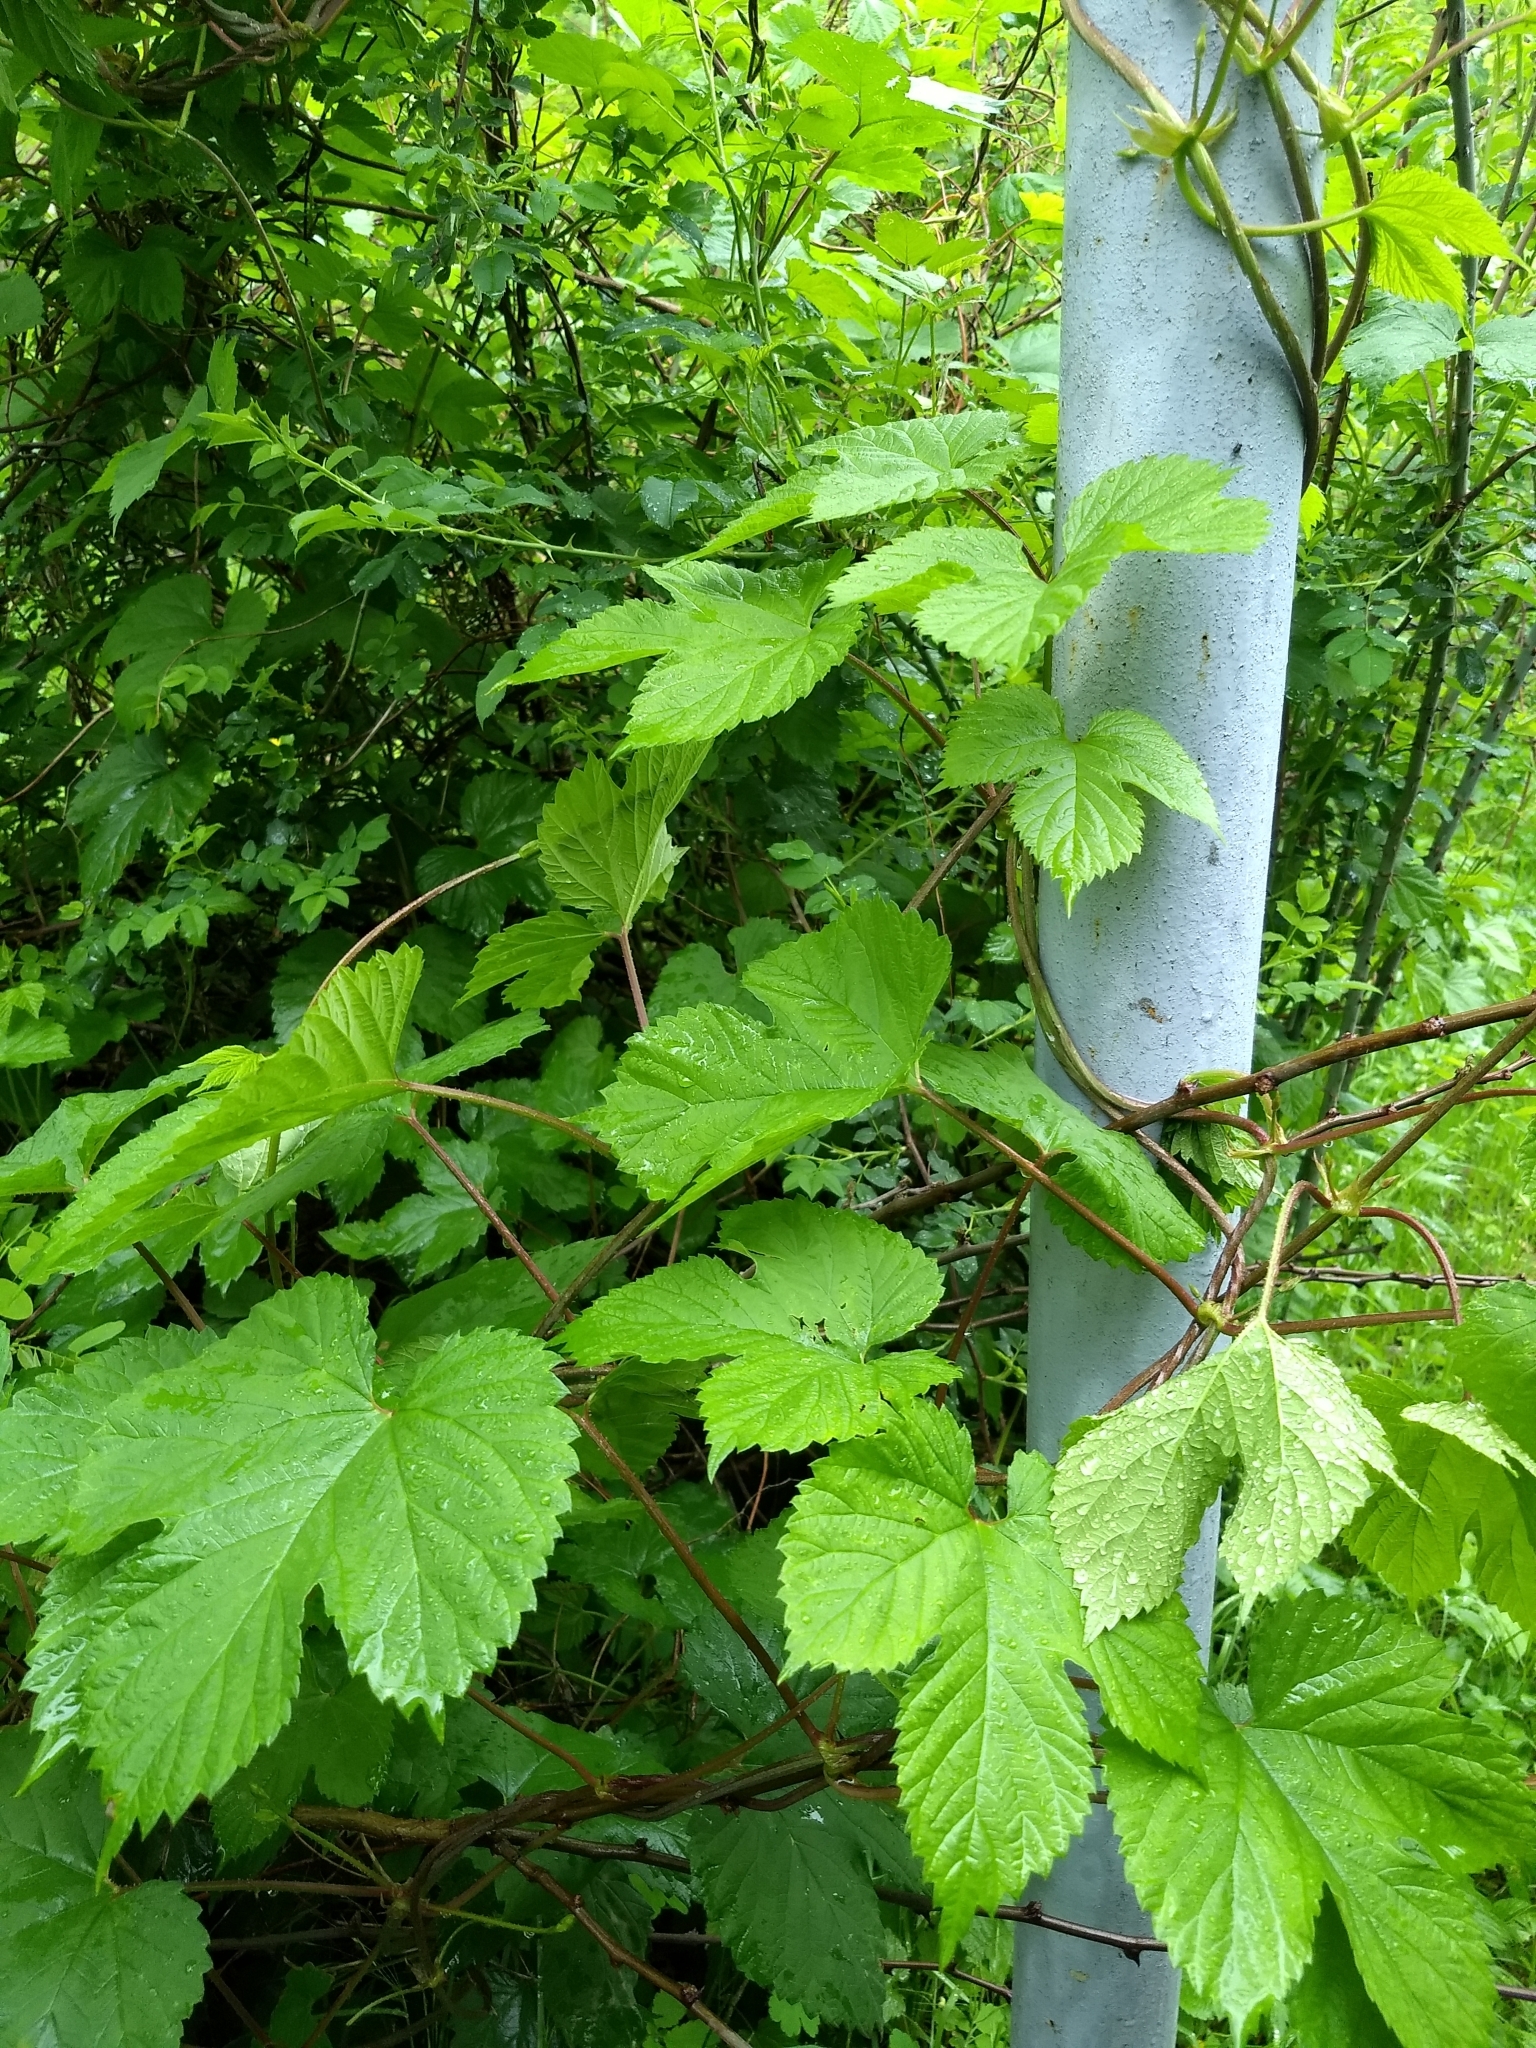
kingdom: Plantae
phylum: Tracheophyta
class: Magnoliopsida
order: Rosales
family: Cannabaceae
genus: Humulus
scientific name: Humulus lupulus
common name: Hop
